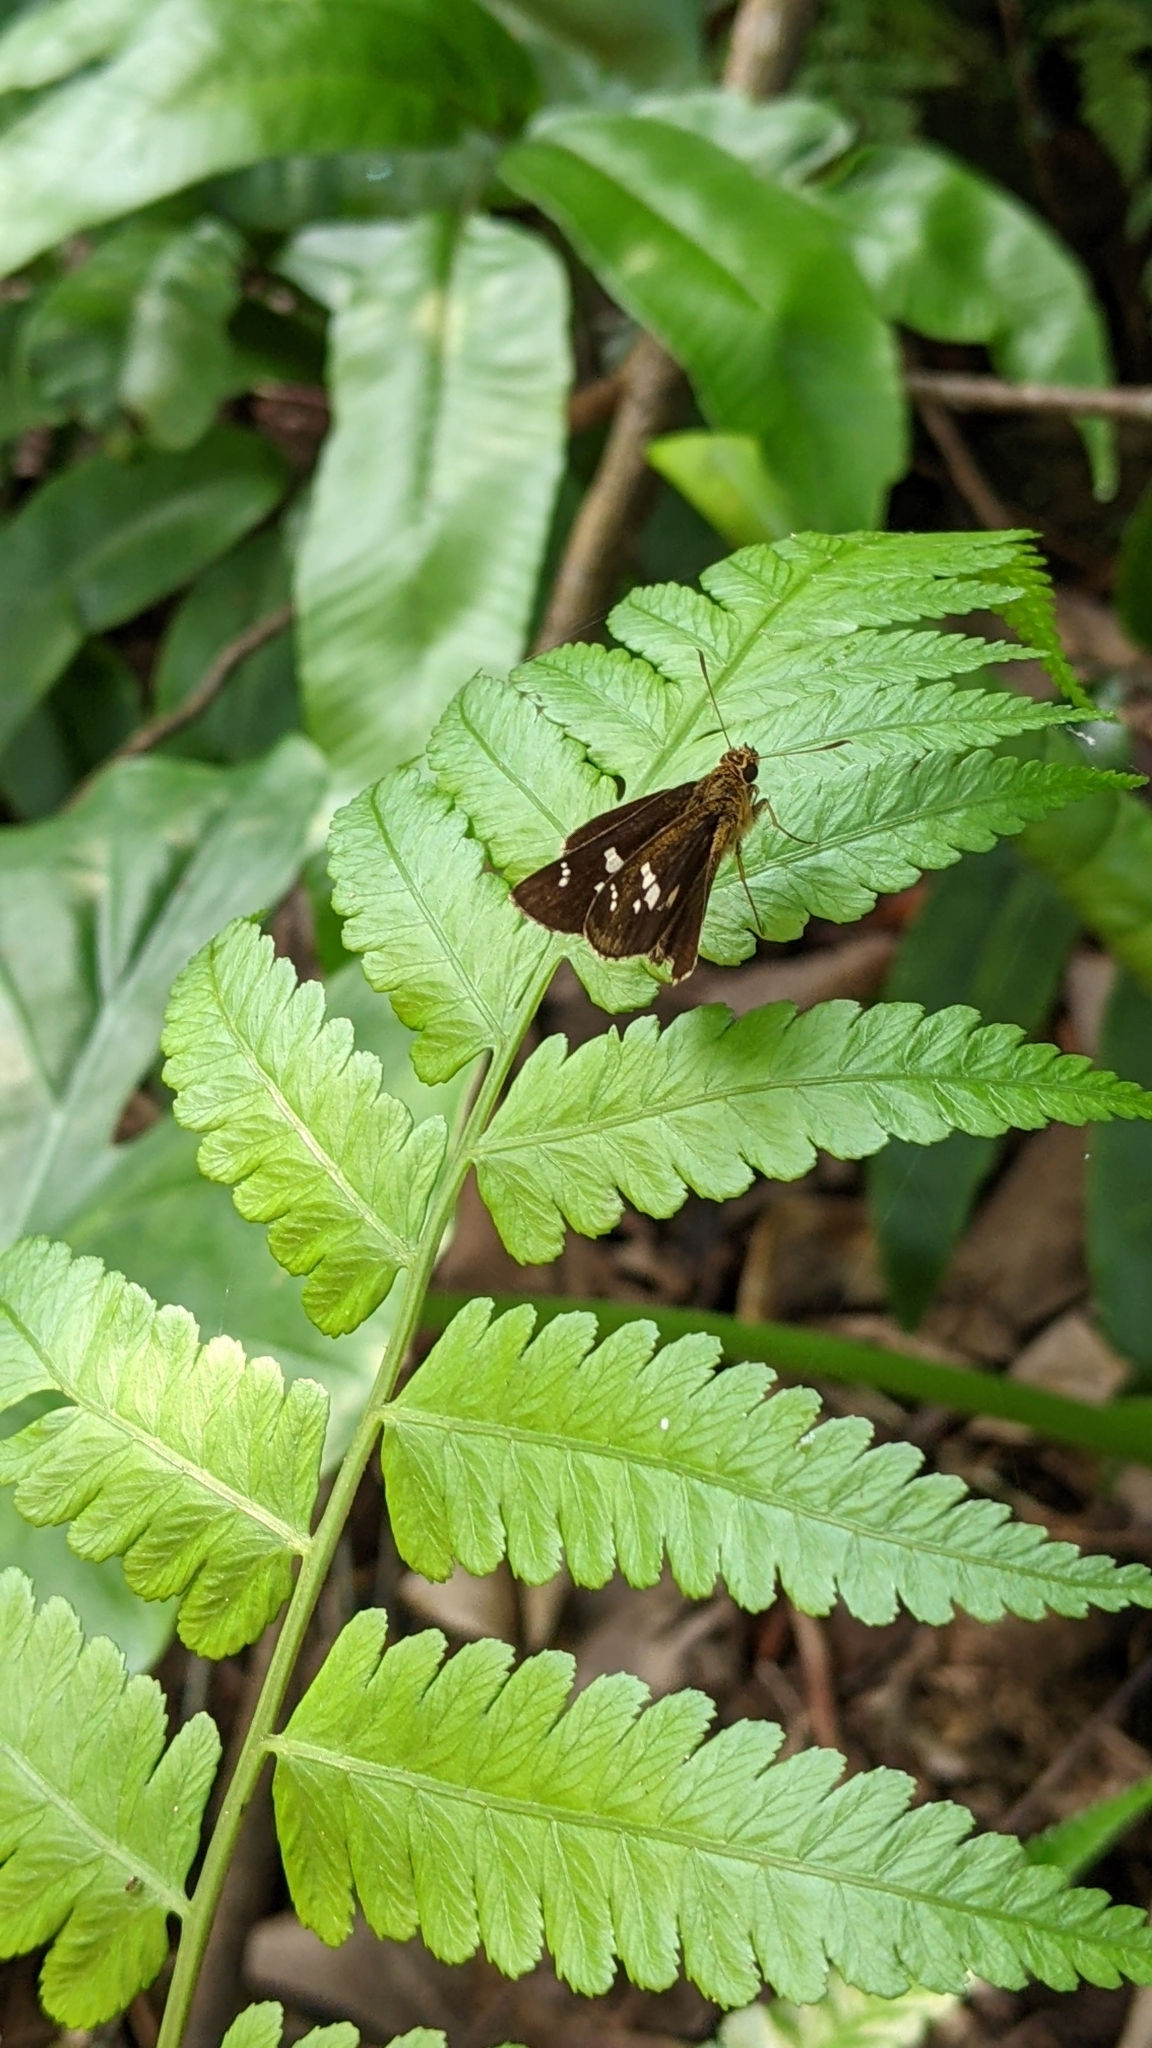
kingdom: Animalia
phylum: Arthropoda
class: Insecta
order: Lepidoptera
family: Hesperiidae
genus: Isoteinon
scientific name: Isoteinon lamprospilus
